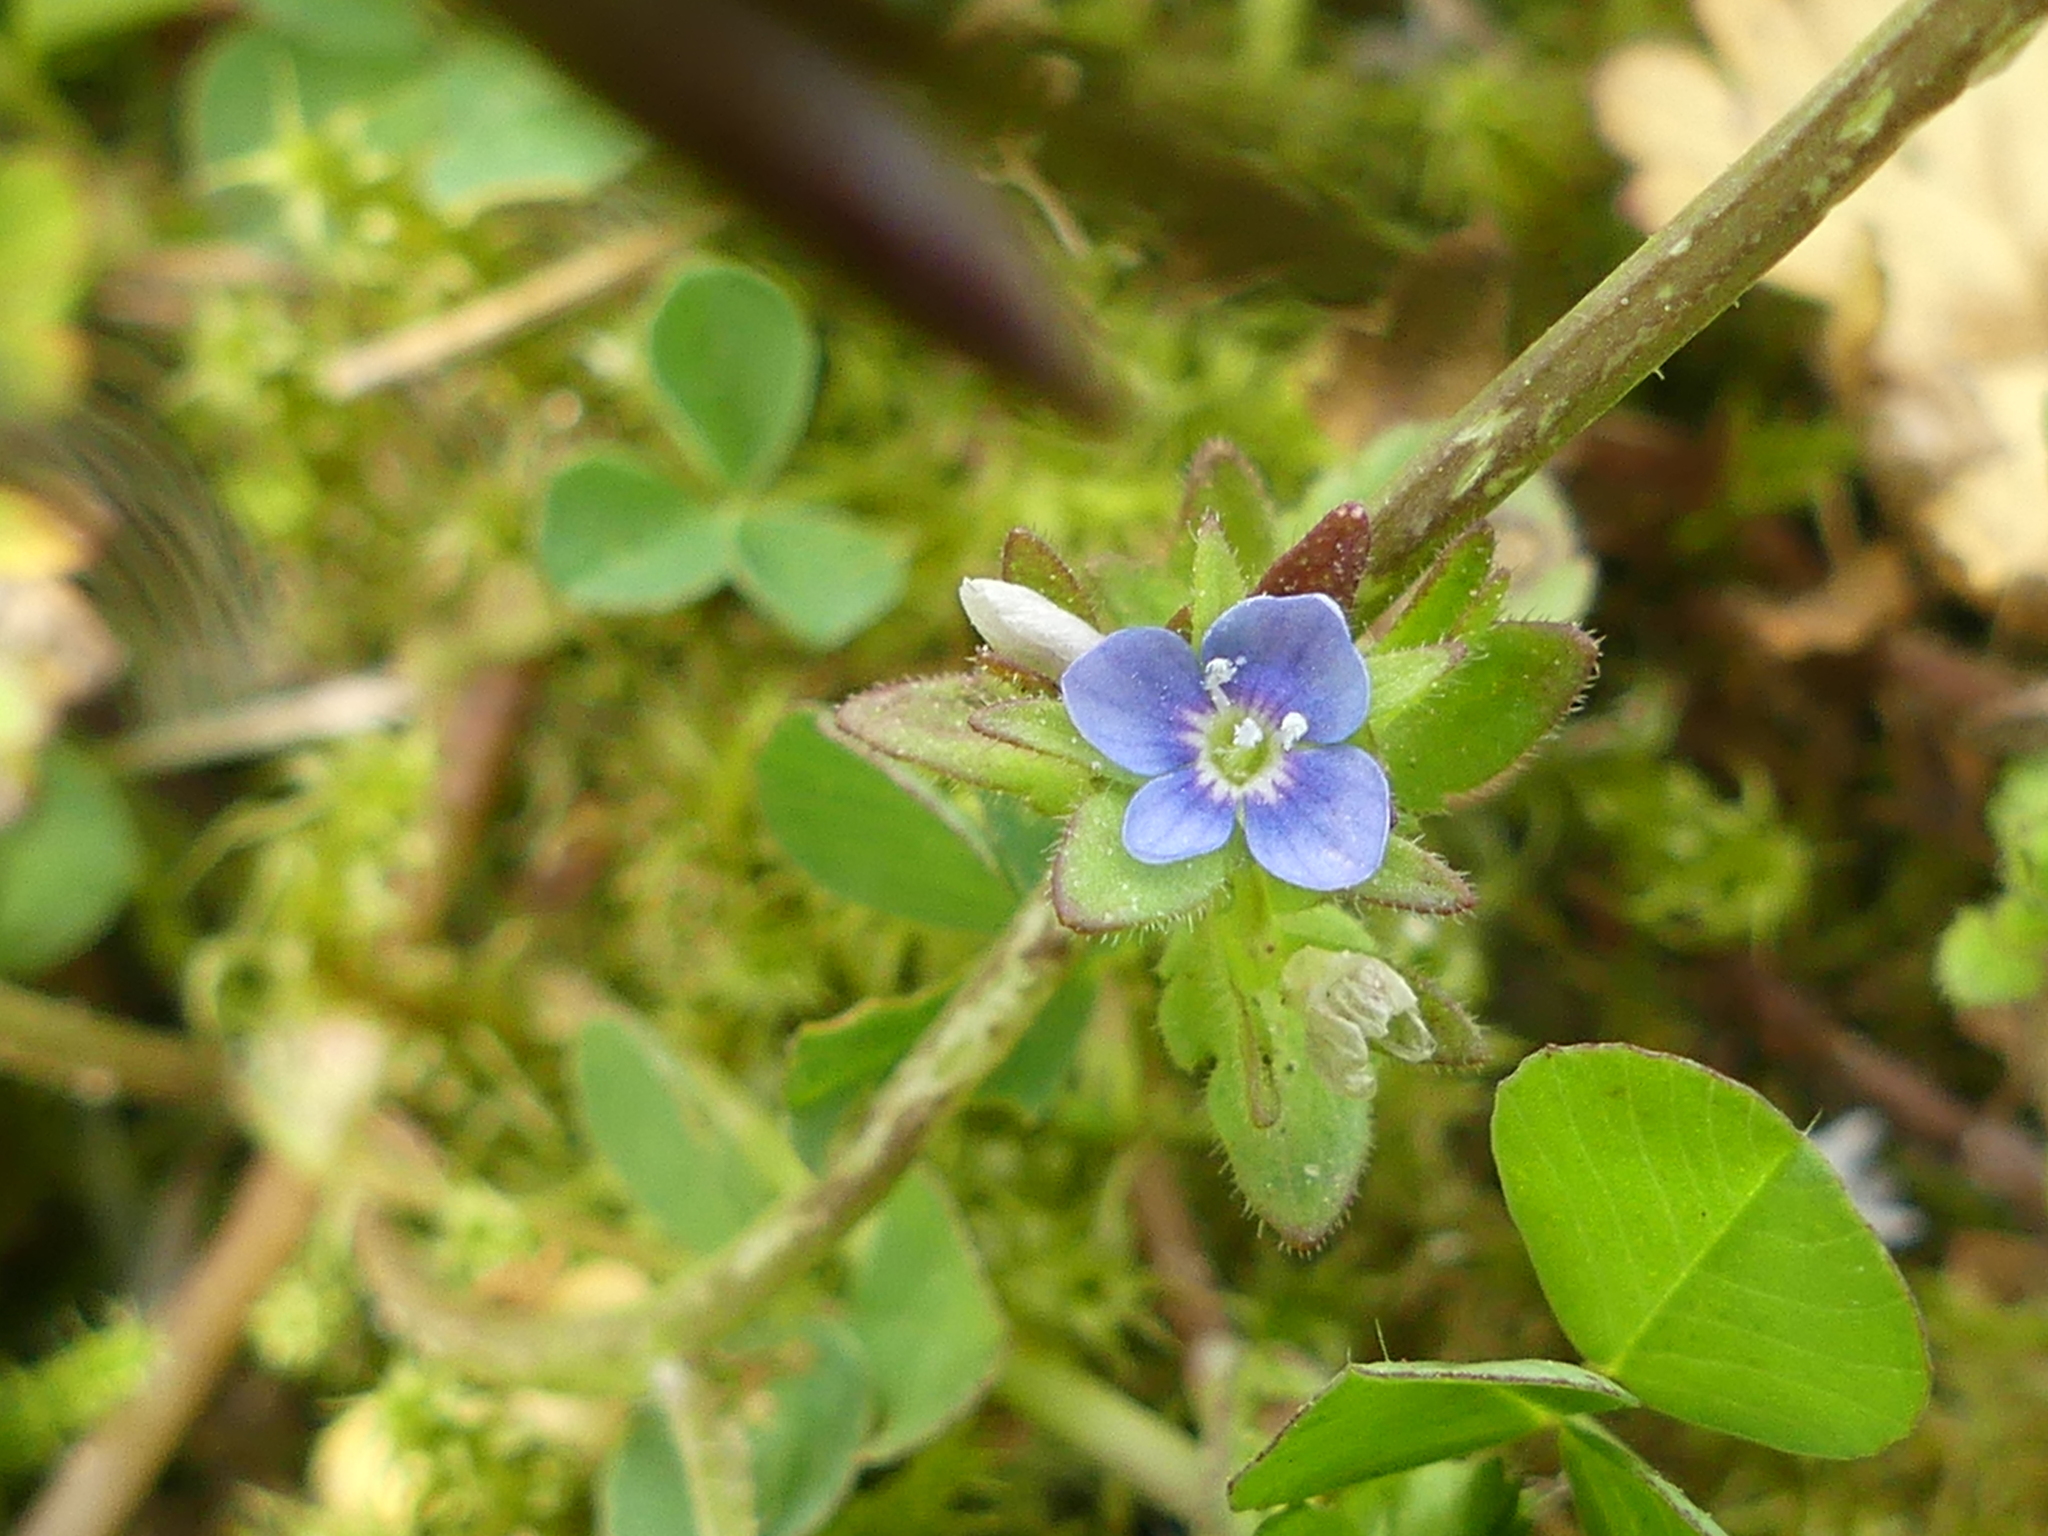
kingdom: Plantae
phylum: Tracheophyta
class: Magnoliopsida
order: Lamiales
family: Plantaginaceae
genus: Veronica
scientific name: Veronica arvensis
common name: Corn speedwell
